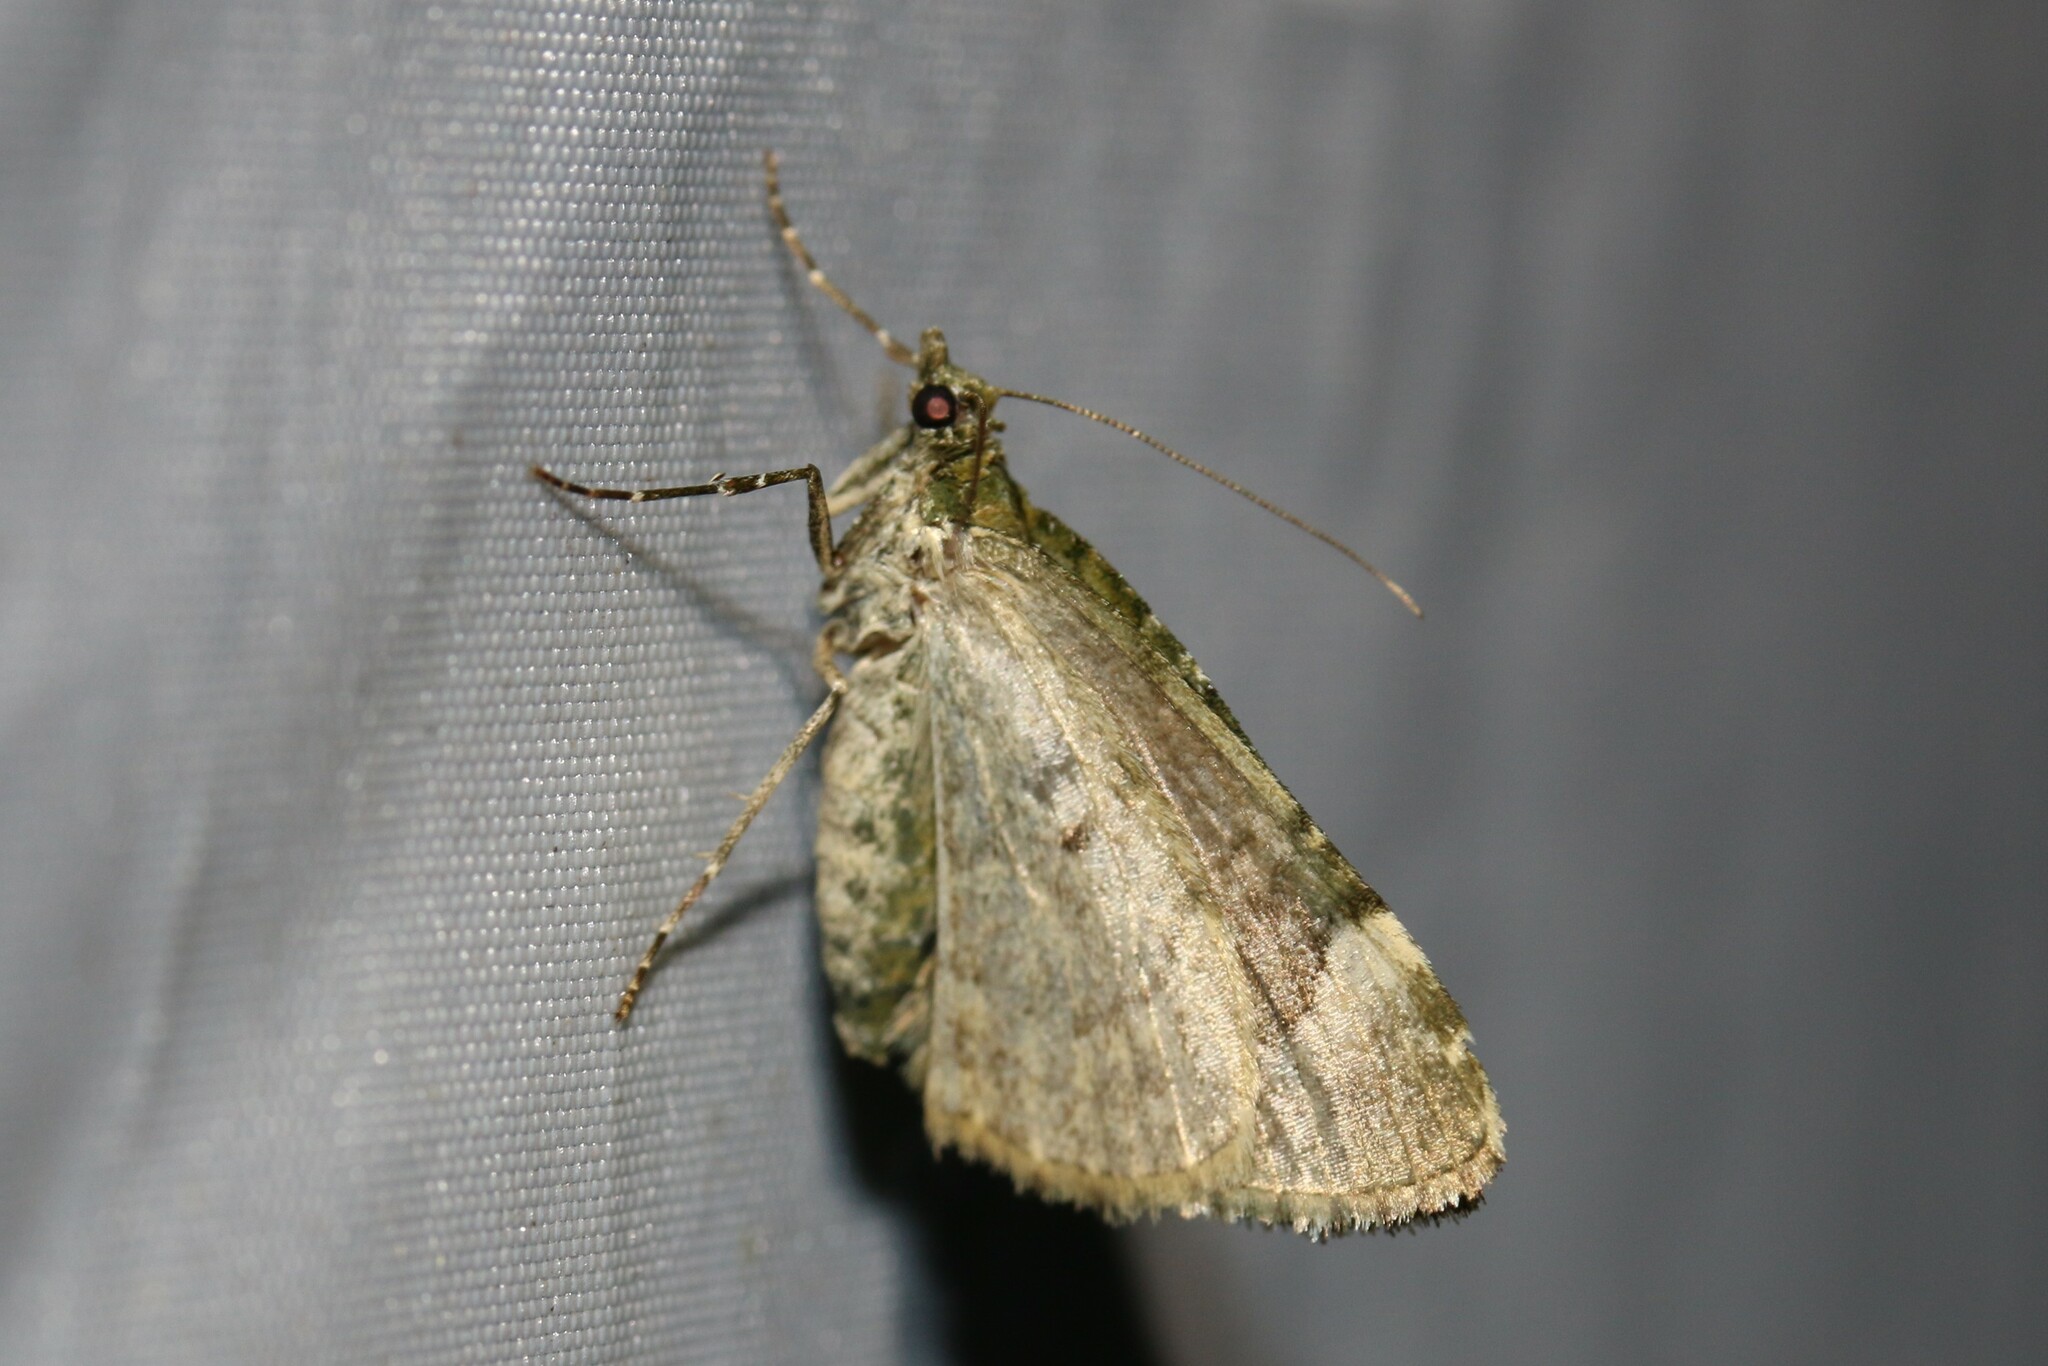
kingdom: Animalia
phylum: Arthropoda
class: Insecta
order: Lepidoptera
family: Geometridae
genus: Chloroclysta
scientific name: Chloroclysta siterata
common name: Red-green carpet
